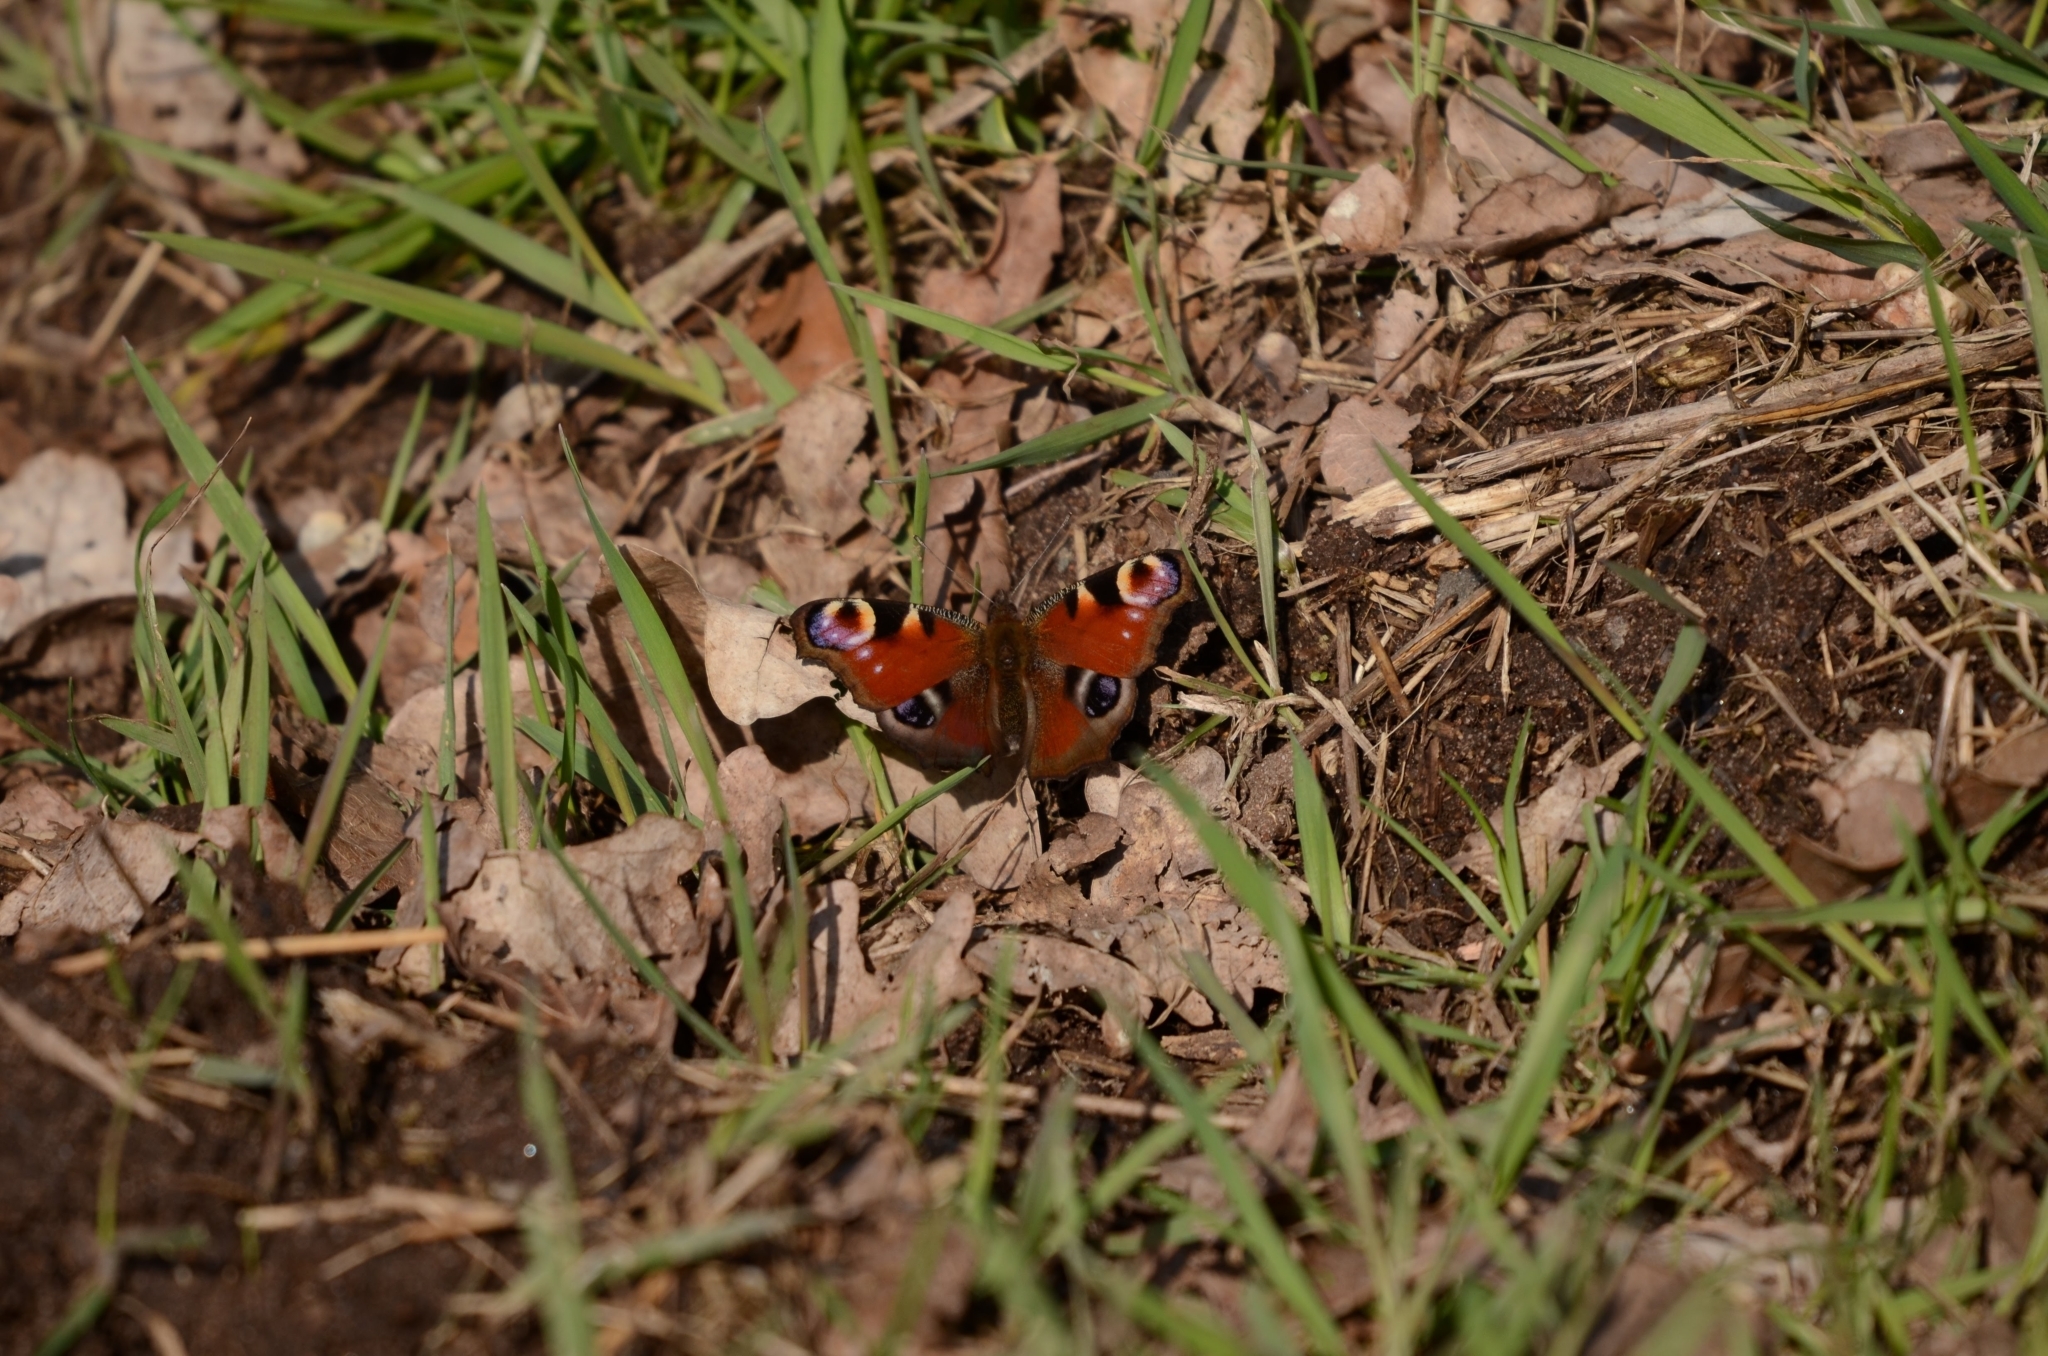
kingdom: Animalia
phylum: Arthropoda
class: Insecta
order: Lepidoptera
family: Nymphalidae
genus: Aglais
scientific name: Aglais io
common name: Peacock
